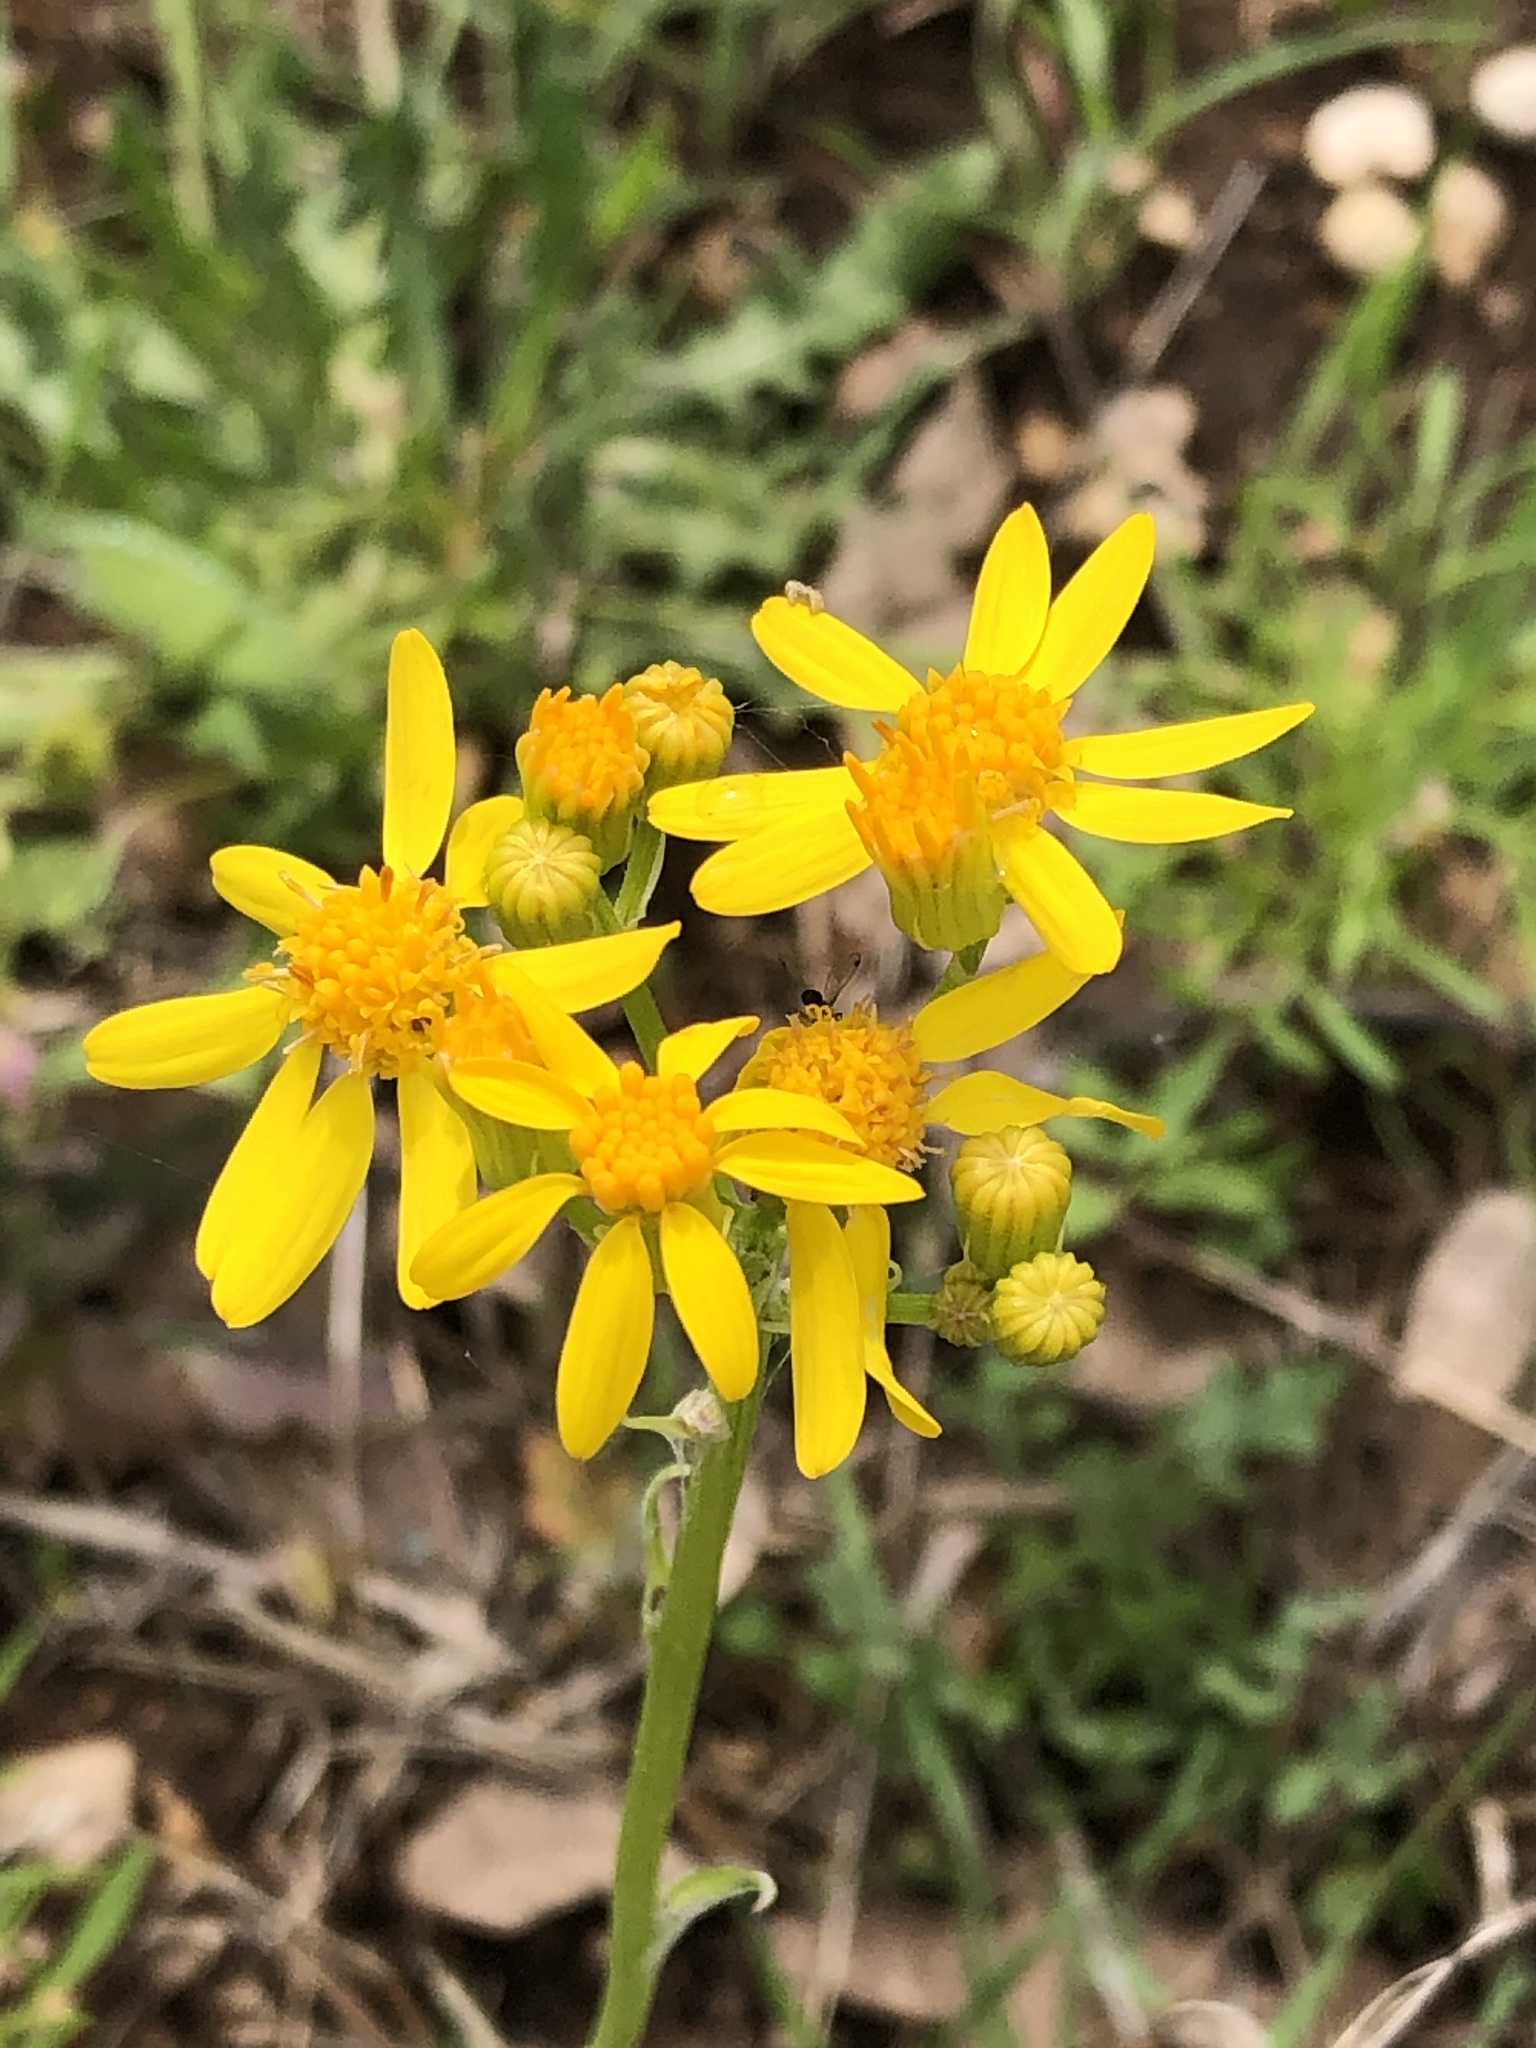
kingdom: Plantae
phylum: Tracheophyta
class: Magnoliopsida
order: Asterales
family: Asteraceae
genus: Senecio
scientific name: Senecio ampullaceus
